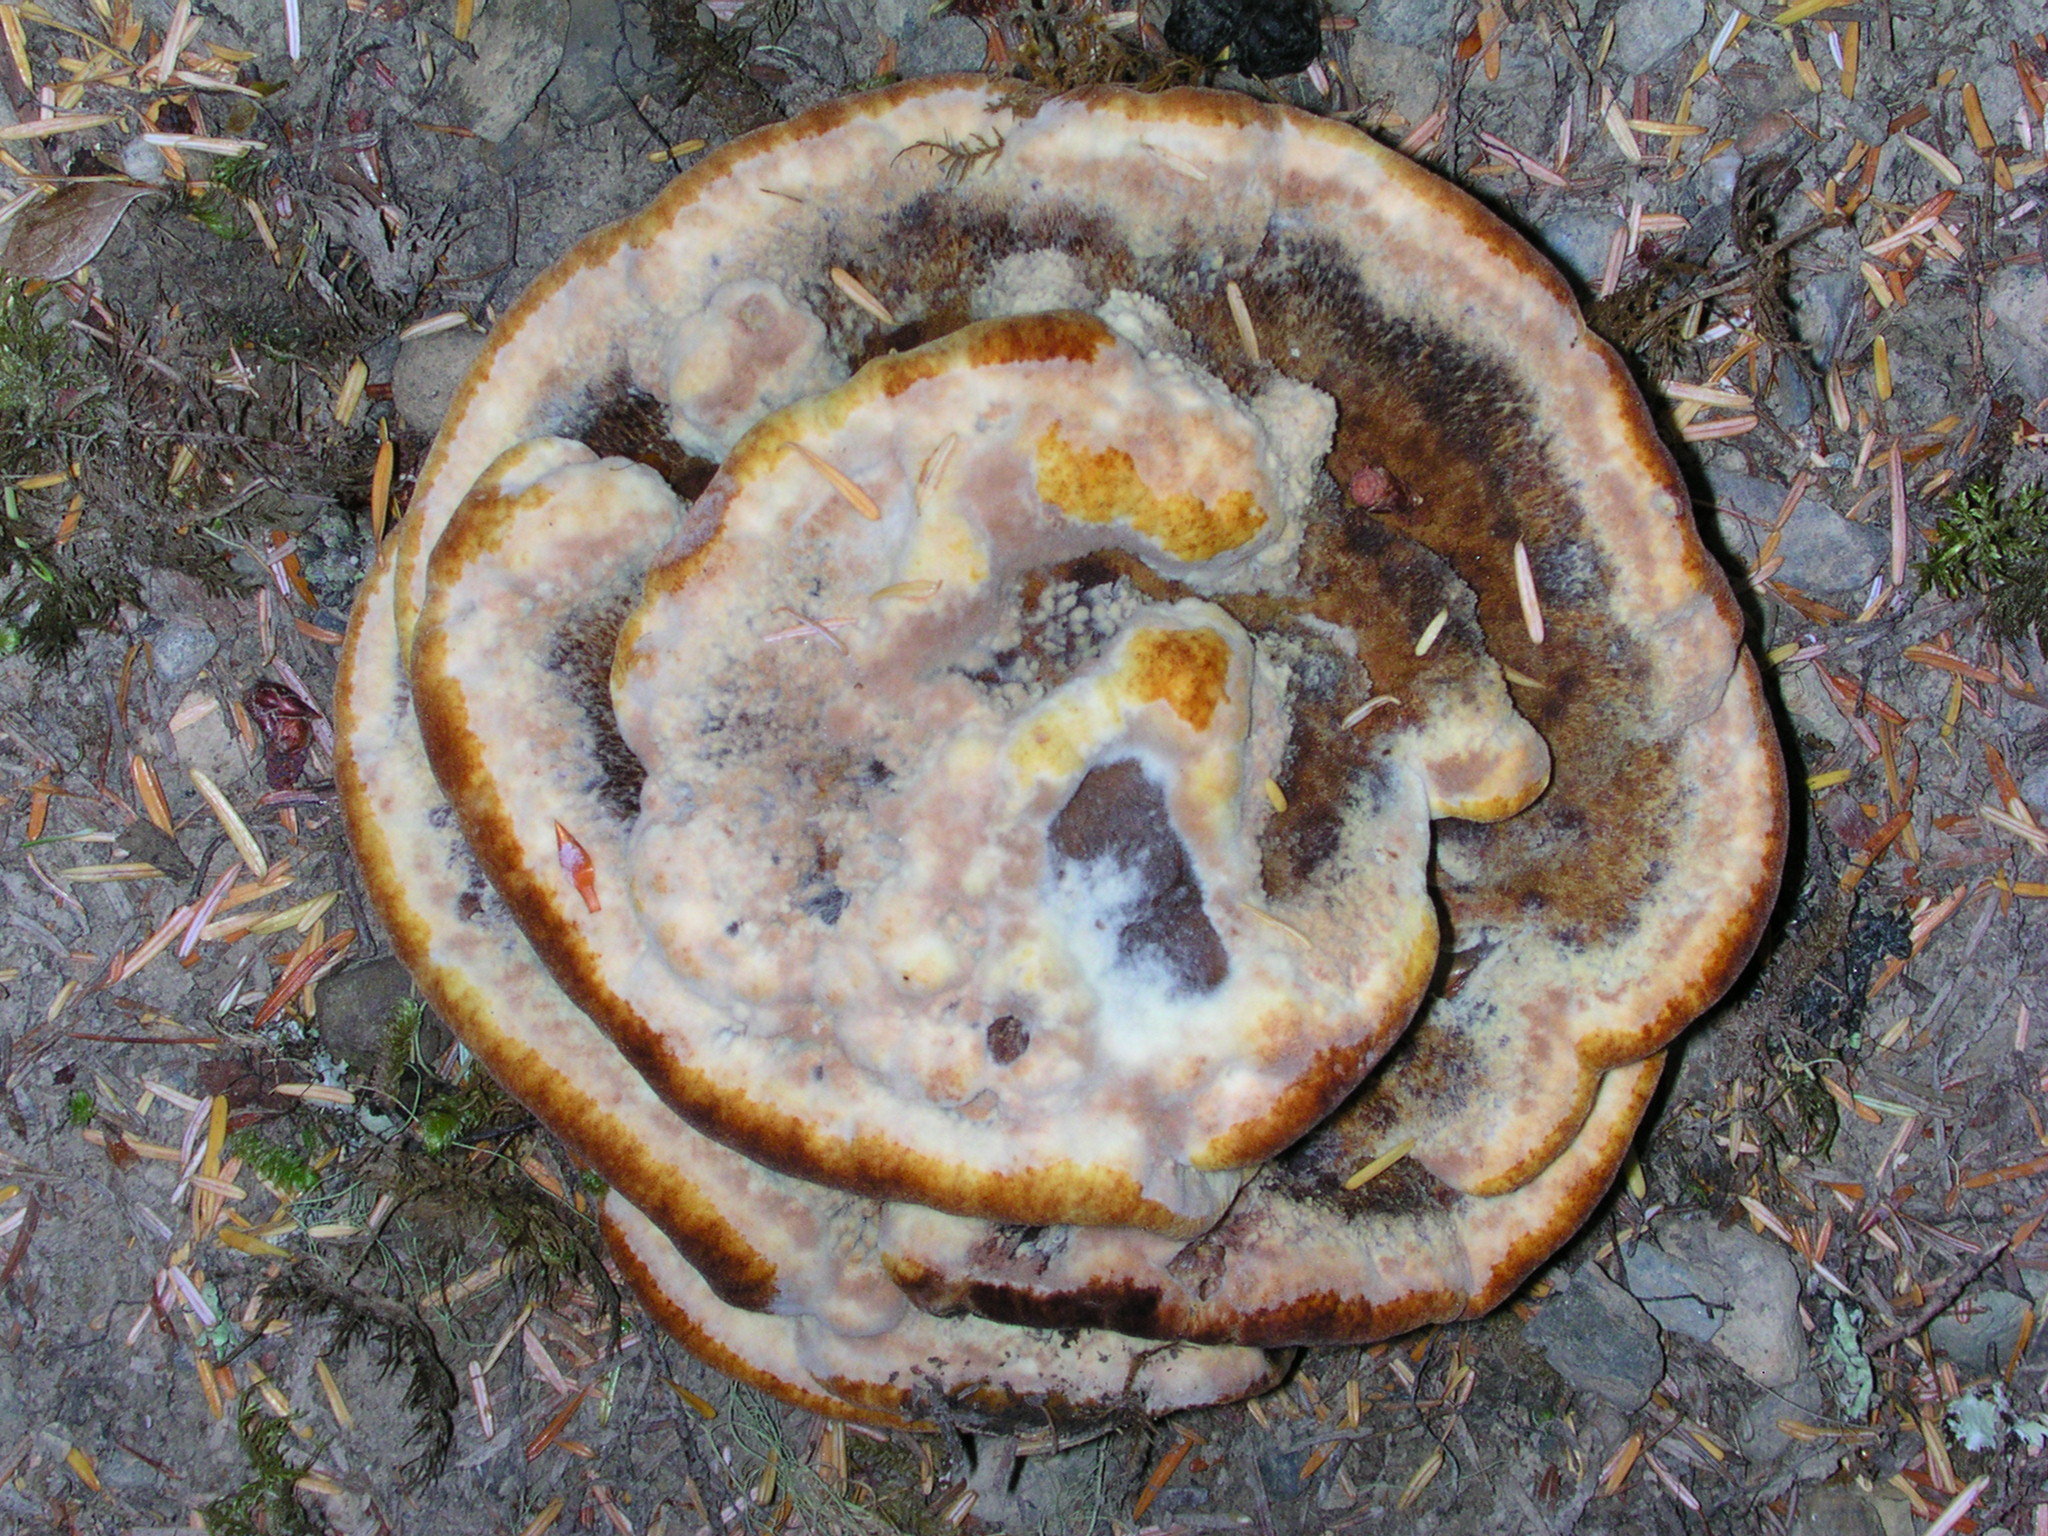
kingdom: Fungi
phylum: Basidiomycota
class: Agaricomycetes
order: Polyporales
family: Laetiporaceae
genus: Phaeolus
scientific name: Phaeolus schweinitzii
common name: Dyer's mazegill
